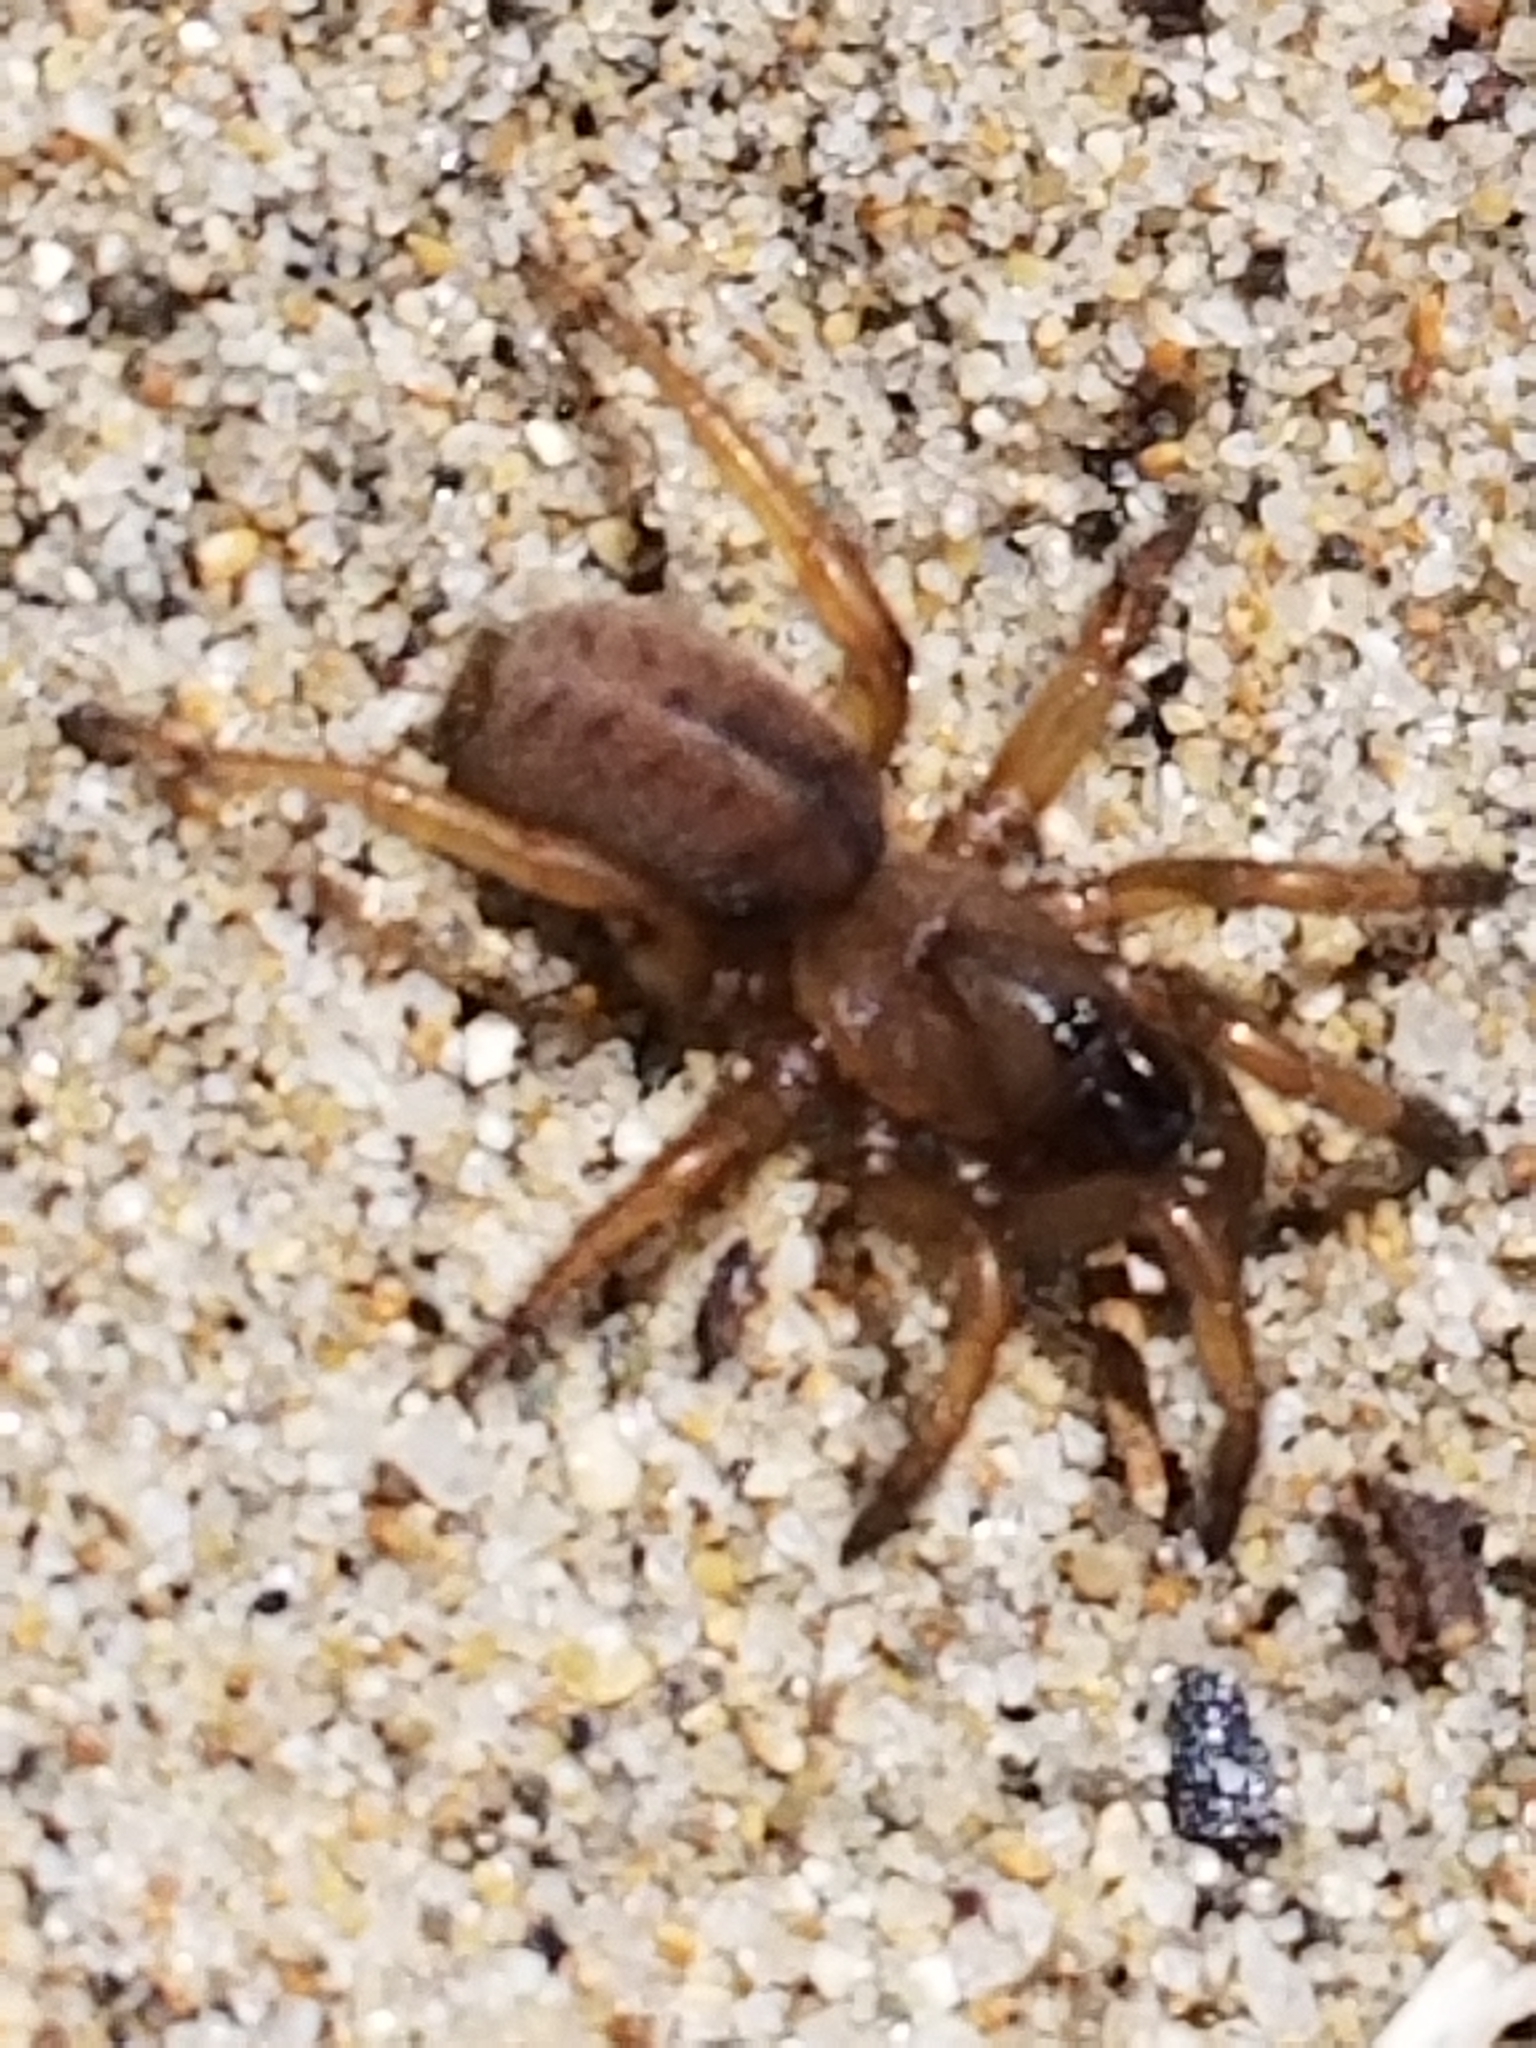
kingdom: Animalia
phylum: Arthropoda
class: Arachnida
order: Araneae
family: Euctenizidae
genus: Aptostichus
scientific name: Aptostichus stephencolberti
